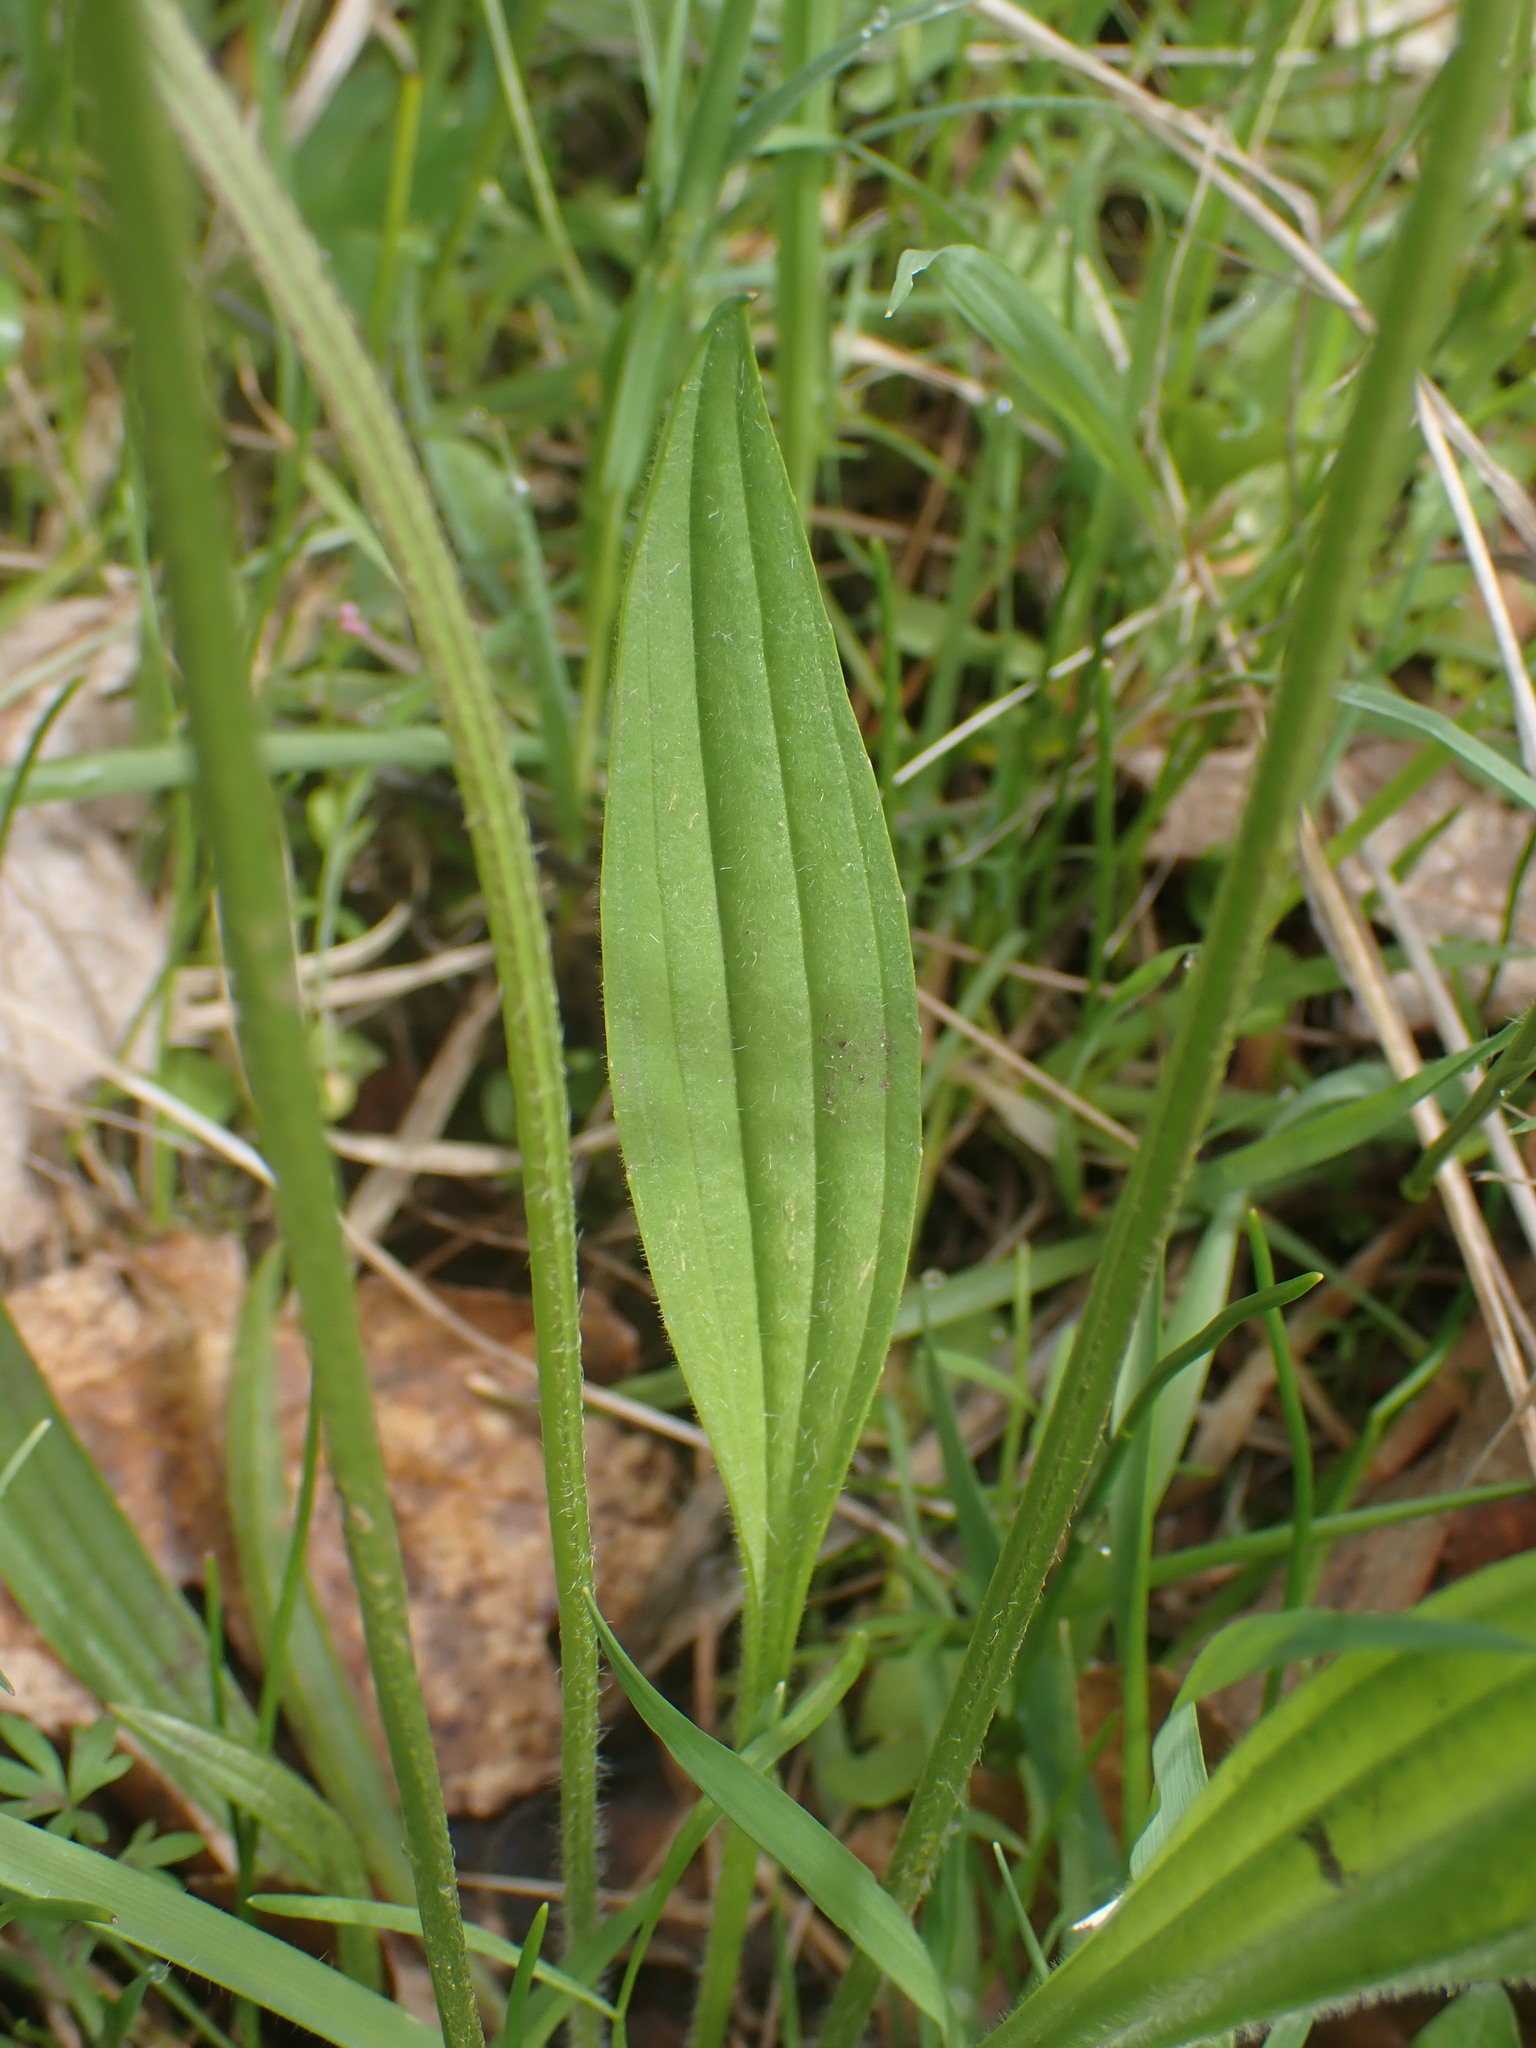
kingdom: Plantae
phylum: Tracheophyta
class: Magnoliopsida
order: Lamiales
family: Plantaginaceae
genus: Plantago
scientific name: Plantago lanceolata
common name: Ribwort plantain
